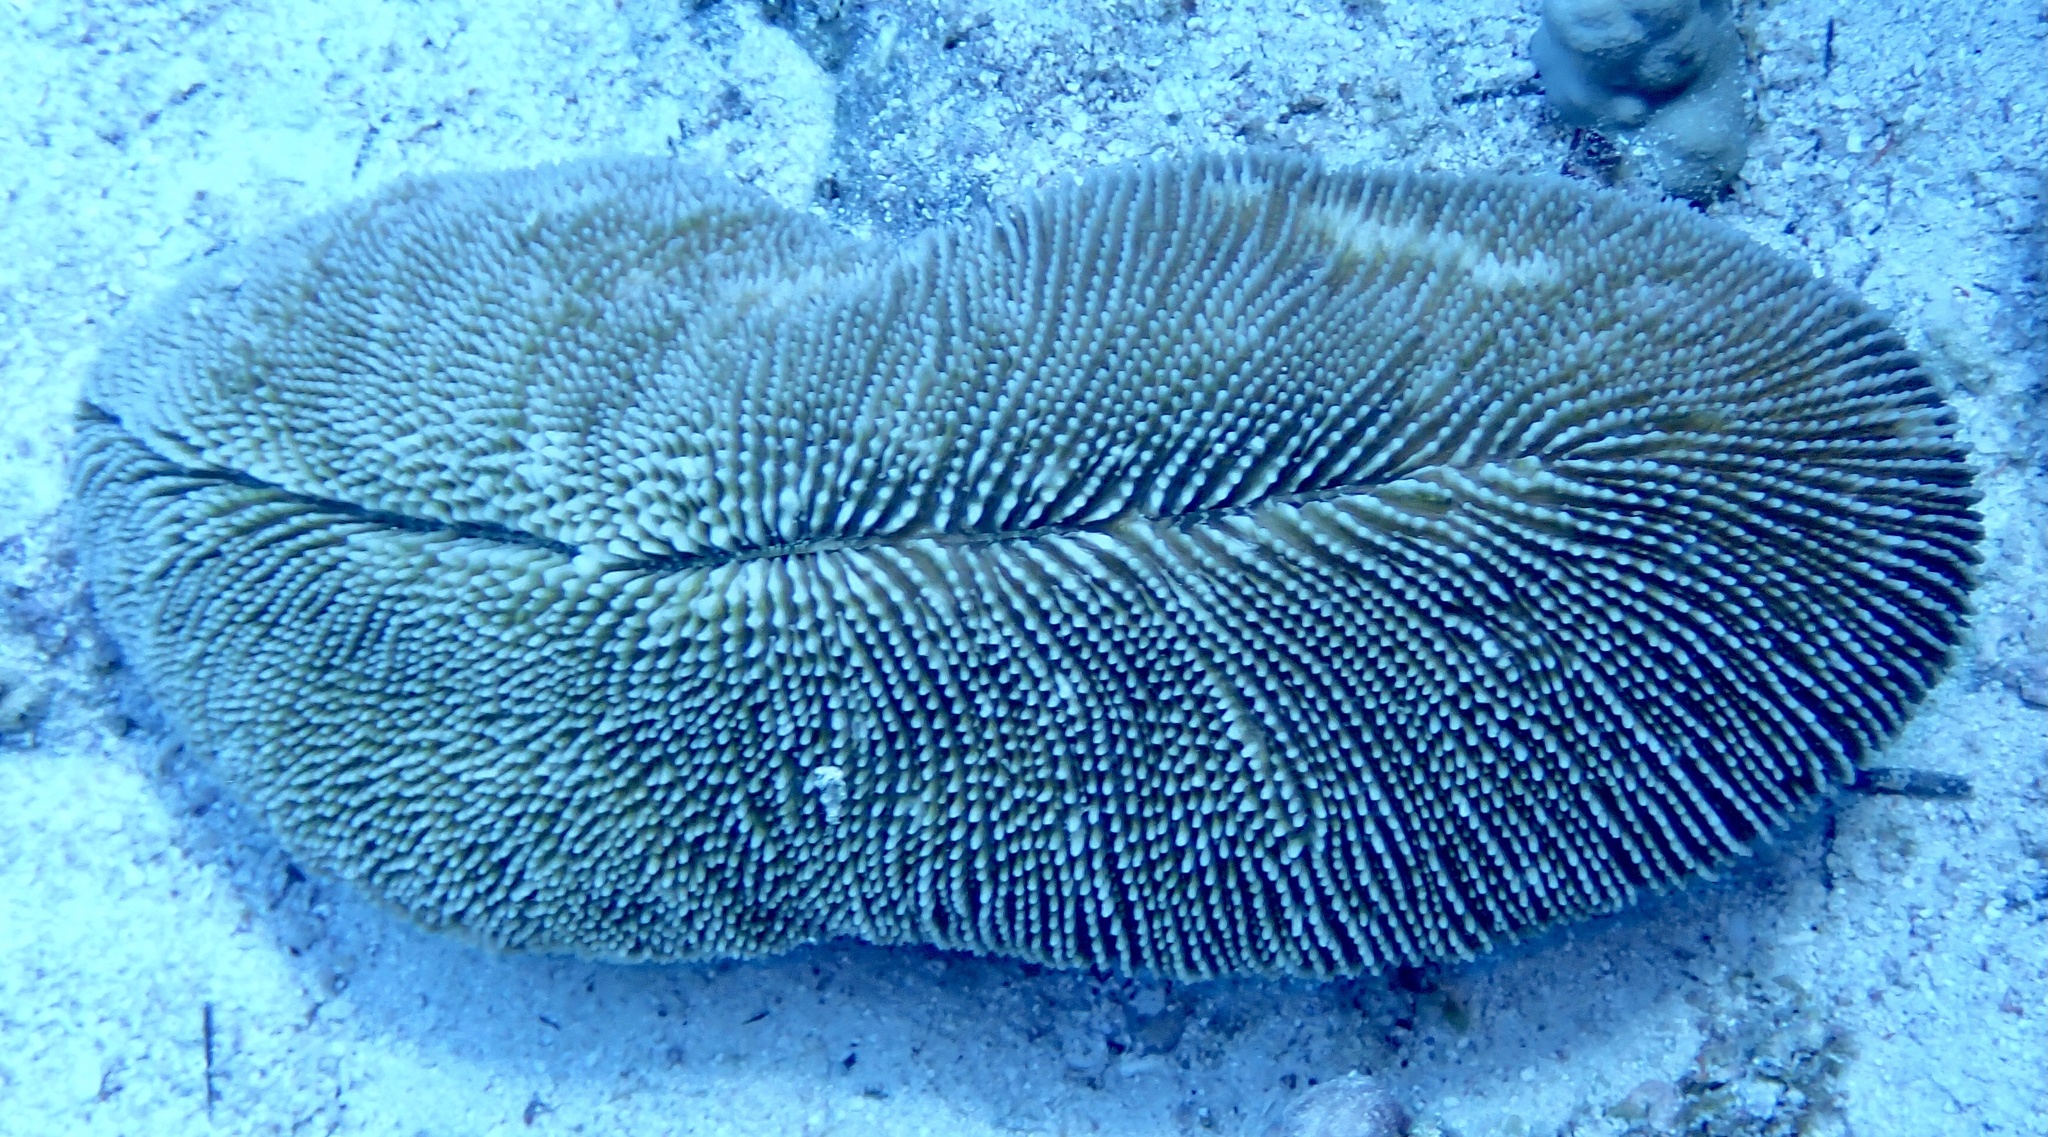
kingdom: Animalia
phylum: Cnidaria
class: Anthozoa
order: Scleractinia
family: Fungiidae
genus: Ctenactis
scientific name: Ctenactis crassa
